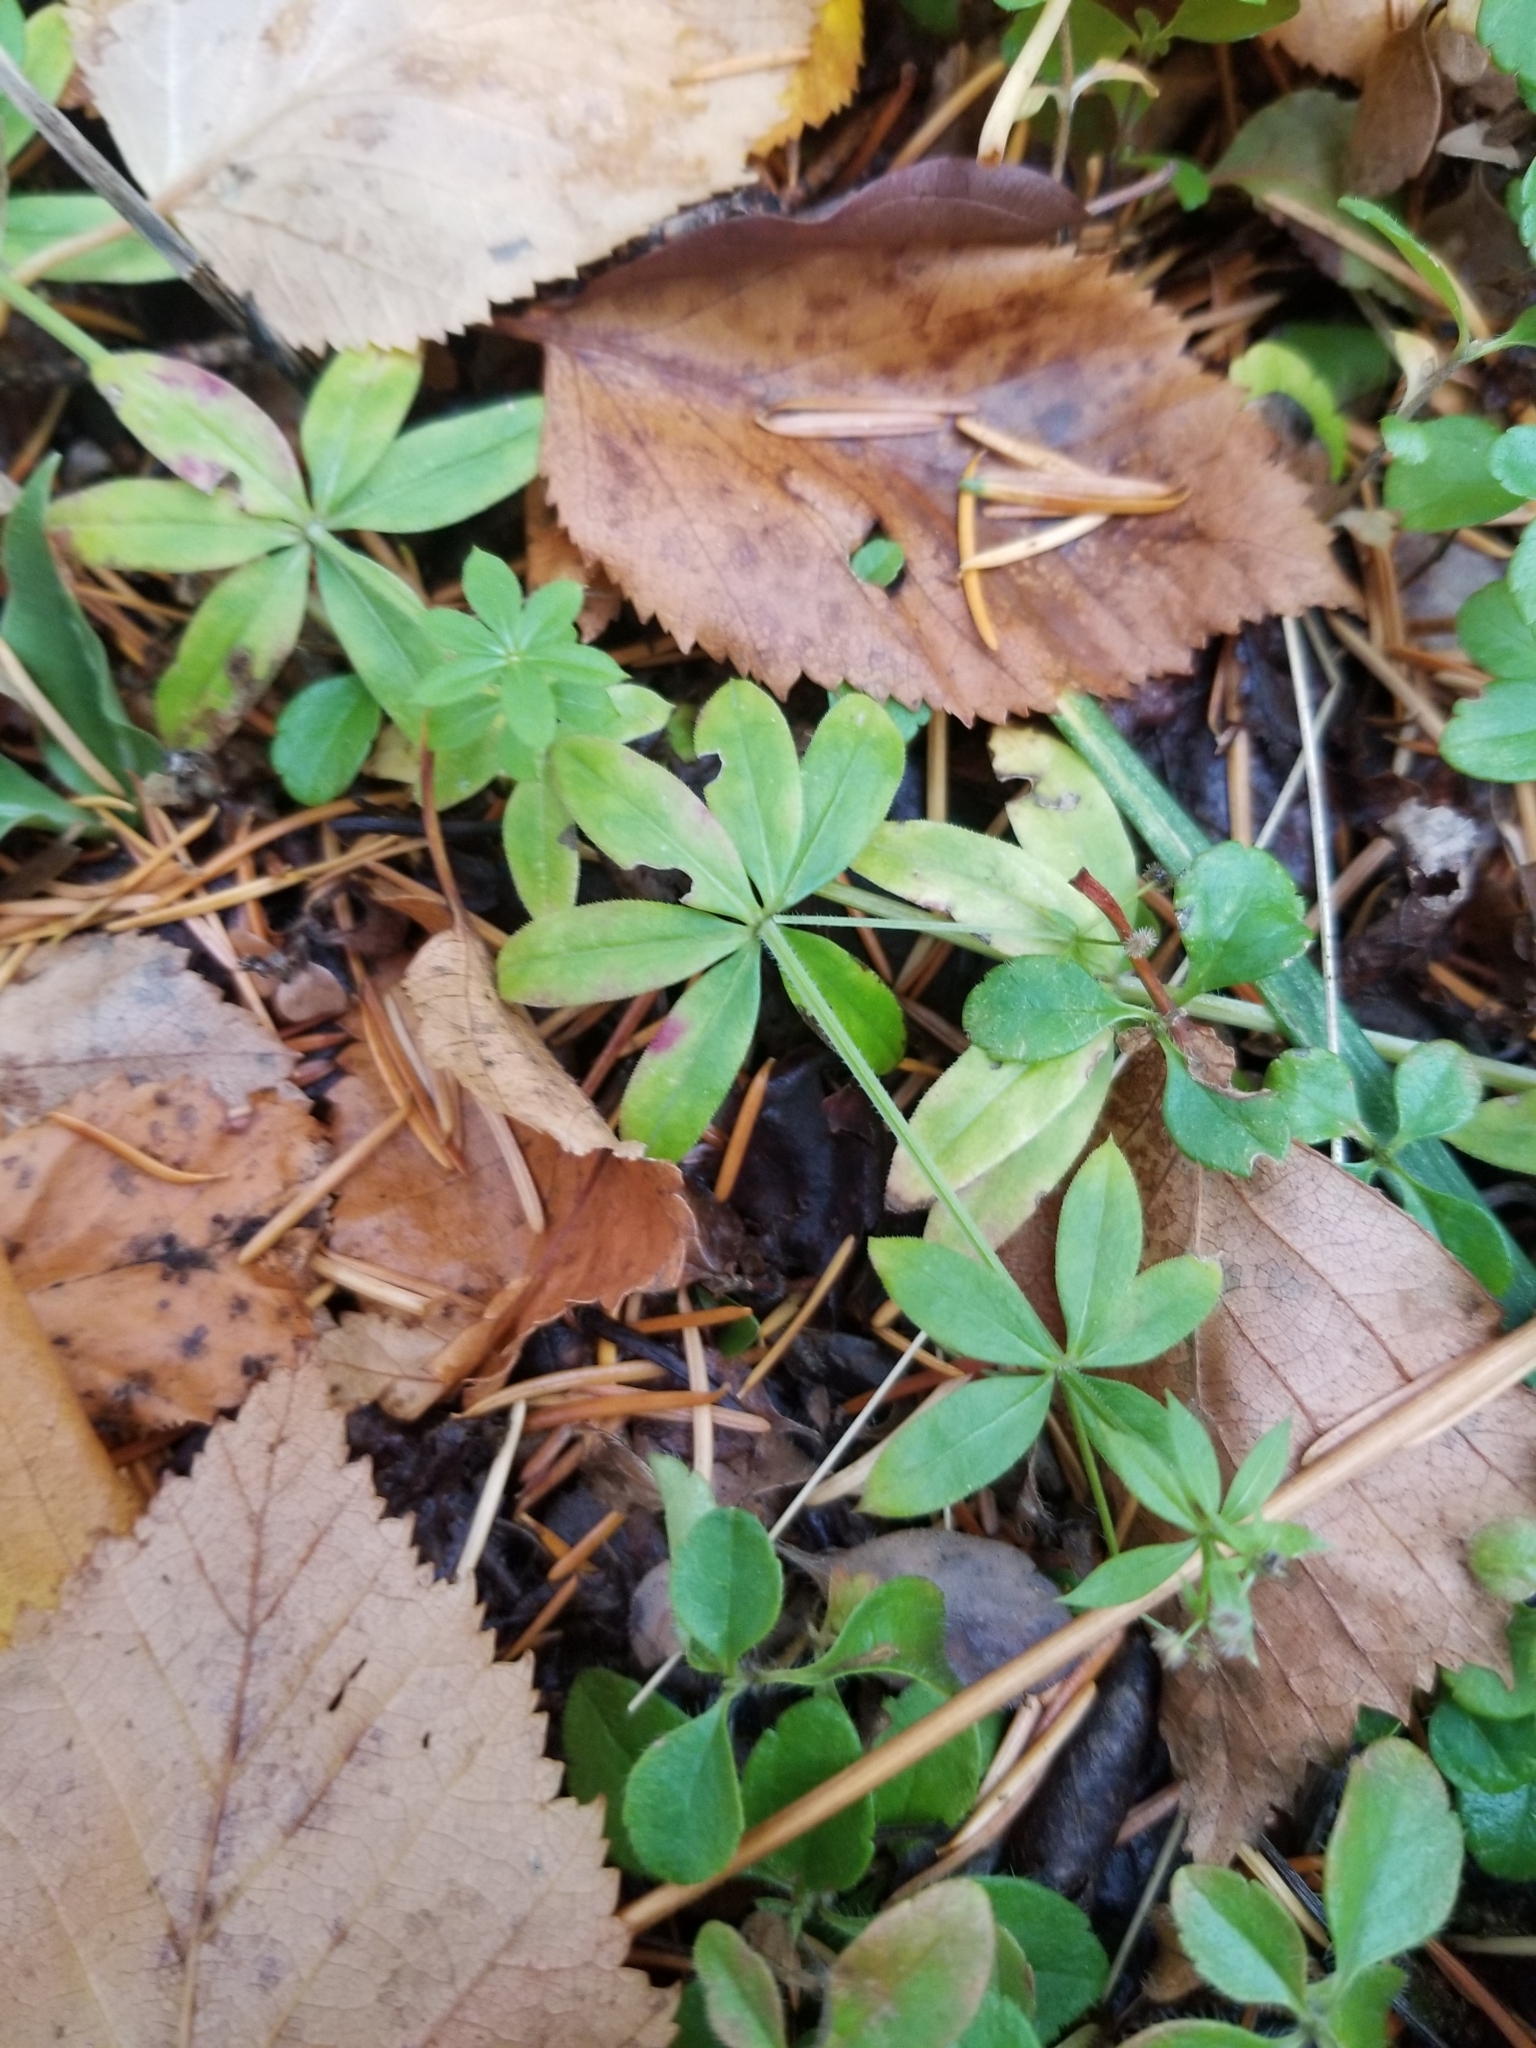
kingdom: Plantae
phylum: Tracheophyta
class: Magnoliopsida
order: Gentianales
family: Rubiaceae
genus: Galium
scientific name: Galium triflorum
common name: Fragrant bedstraw
